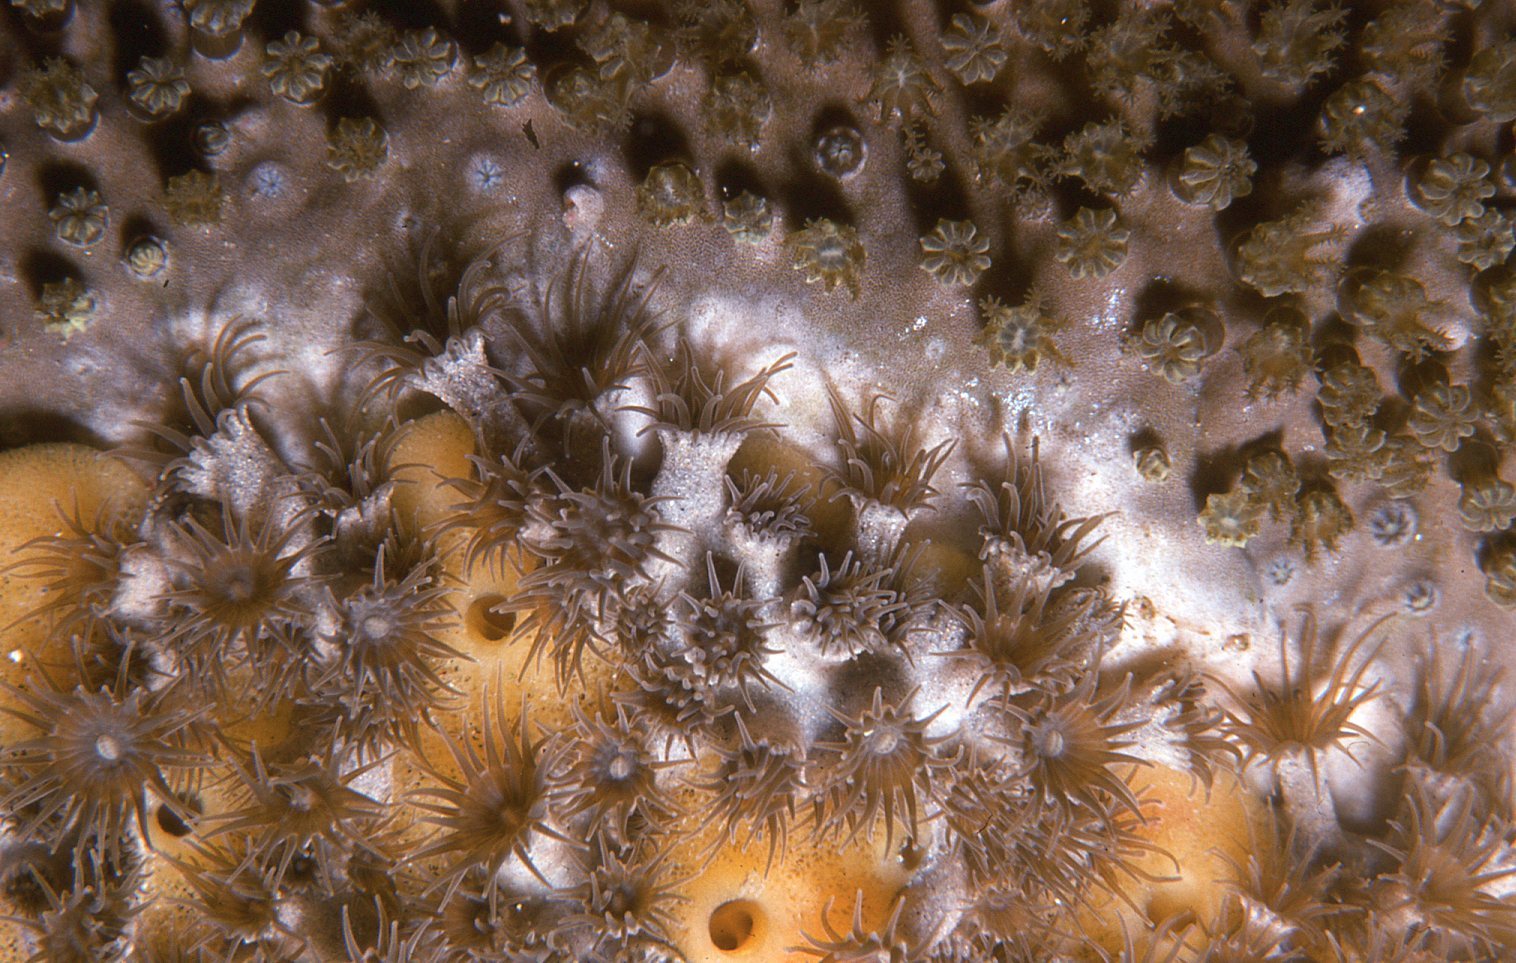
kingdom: Animalia
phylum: Cnidaria
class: Anthozoa
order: Zoantharia
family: Epizoanthidae
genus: Epizoanthus
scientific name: Epizoanthus sabulosus
